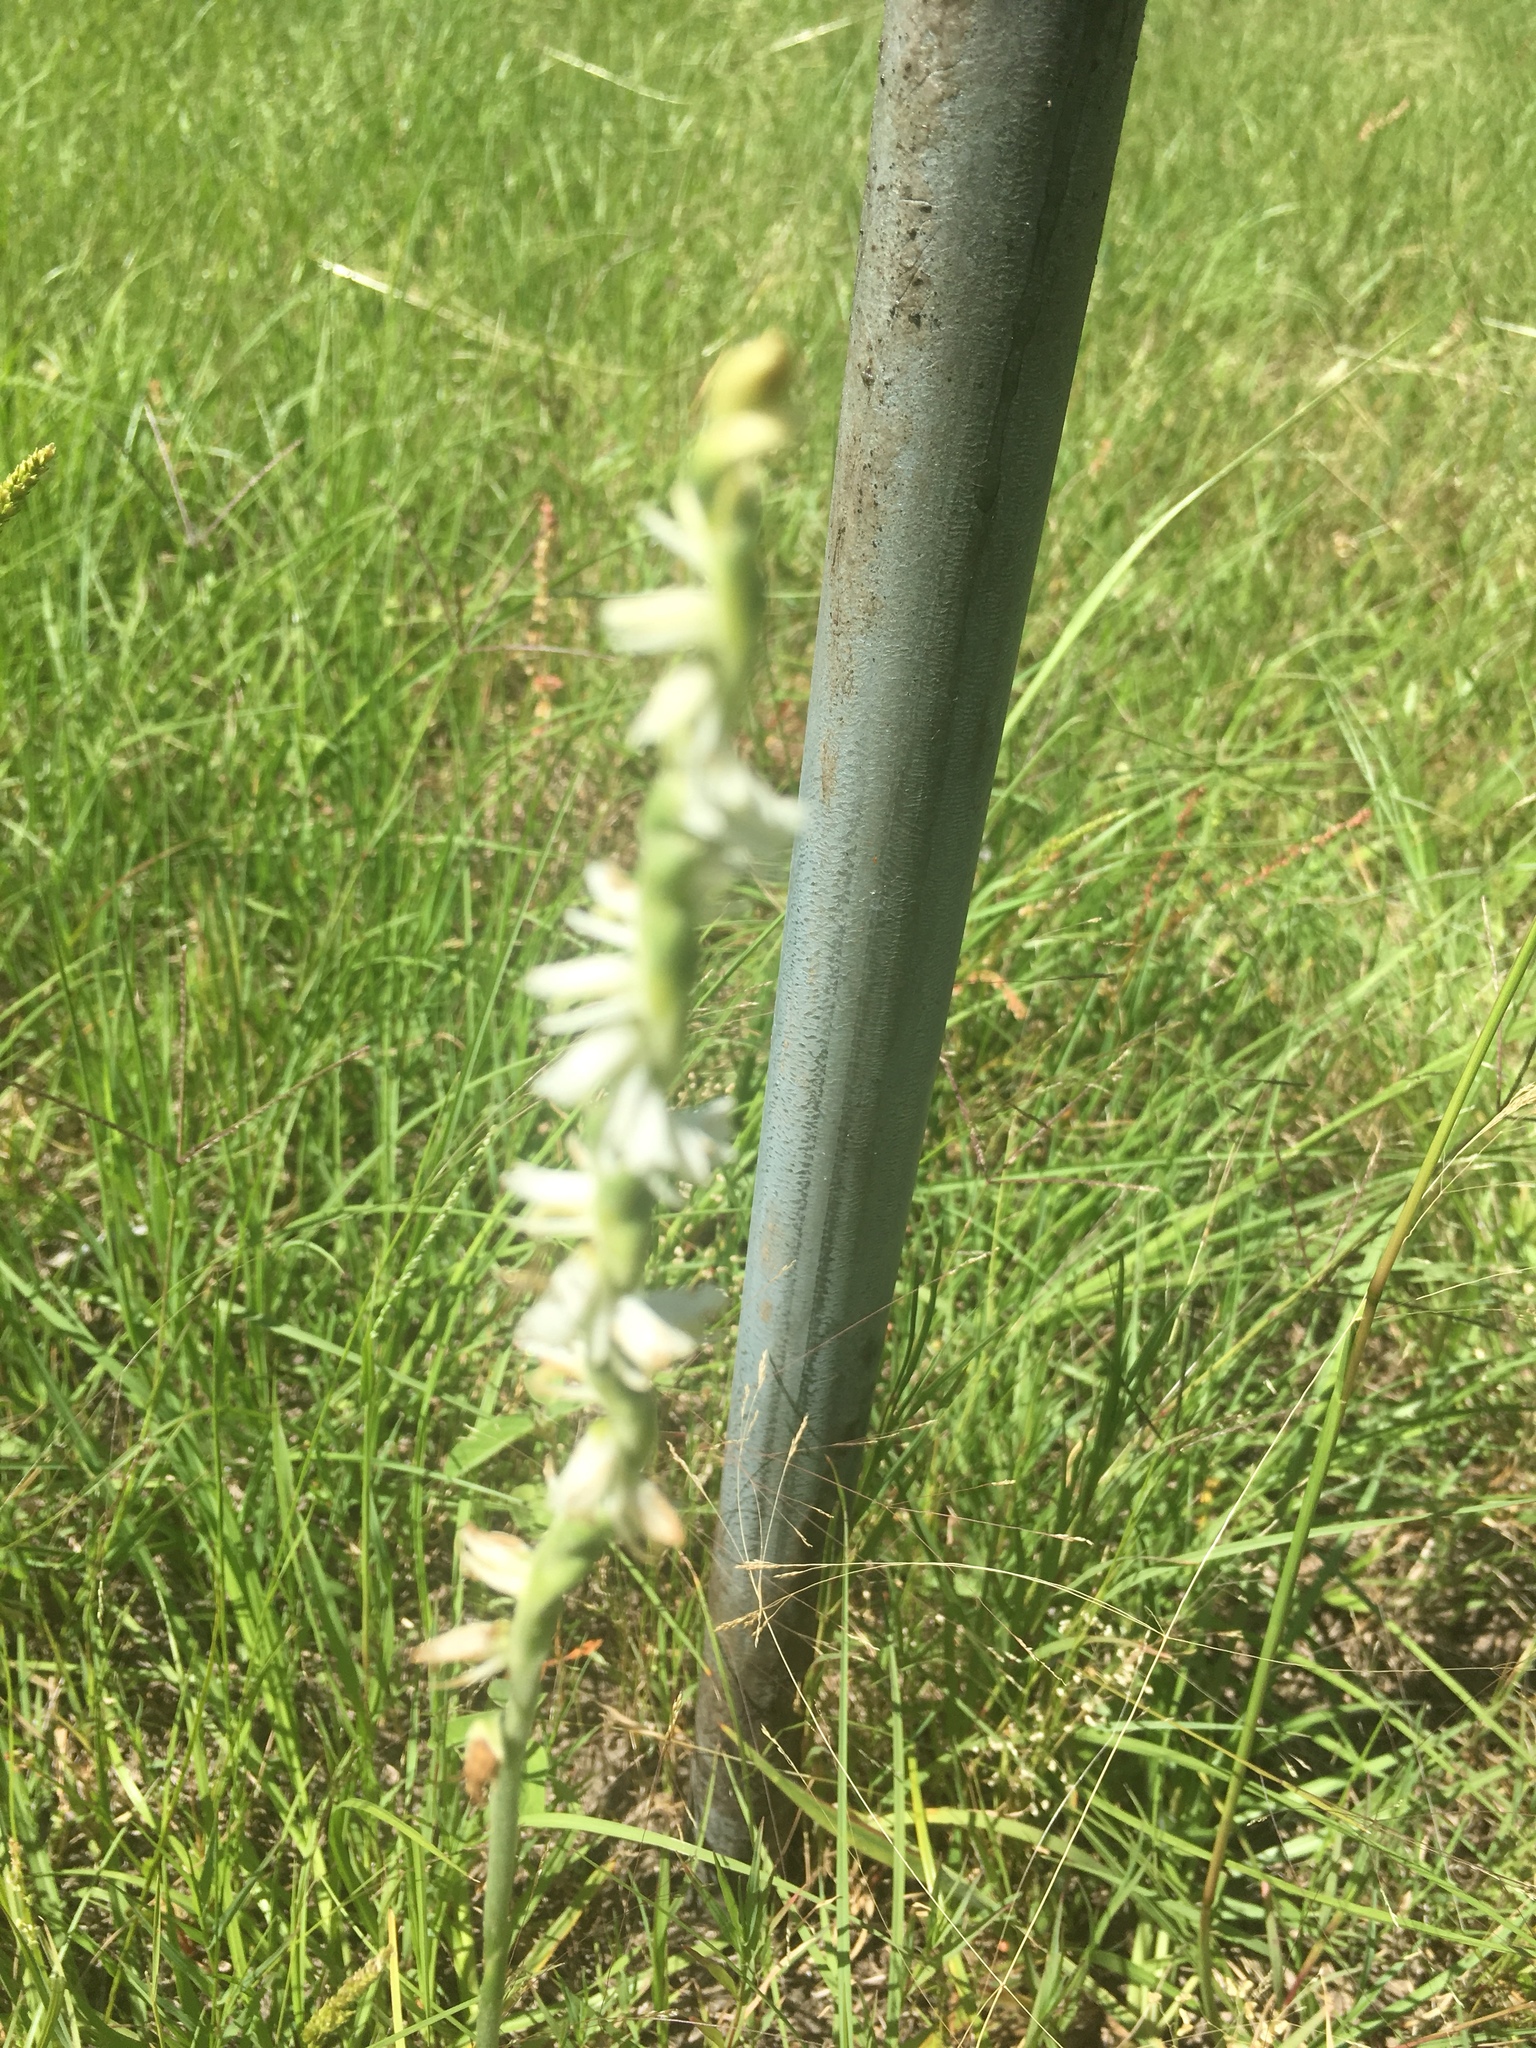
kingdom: Plantae
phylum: Tracheophyta
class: Liliopsida
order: Asparagales
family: Orchidaceae
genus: Spiranthes
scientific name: Spiranthes vernalis
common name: Spring ladies'-tresses
